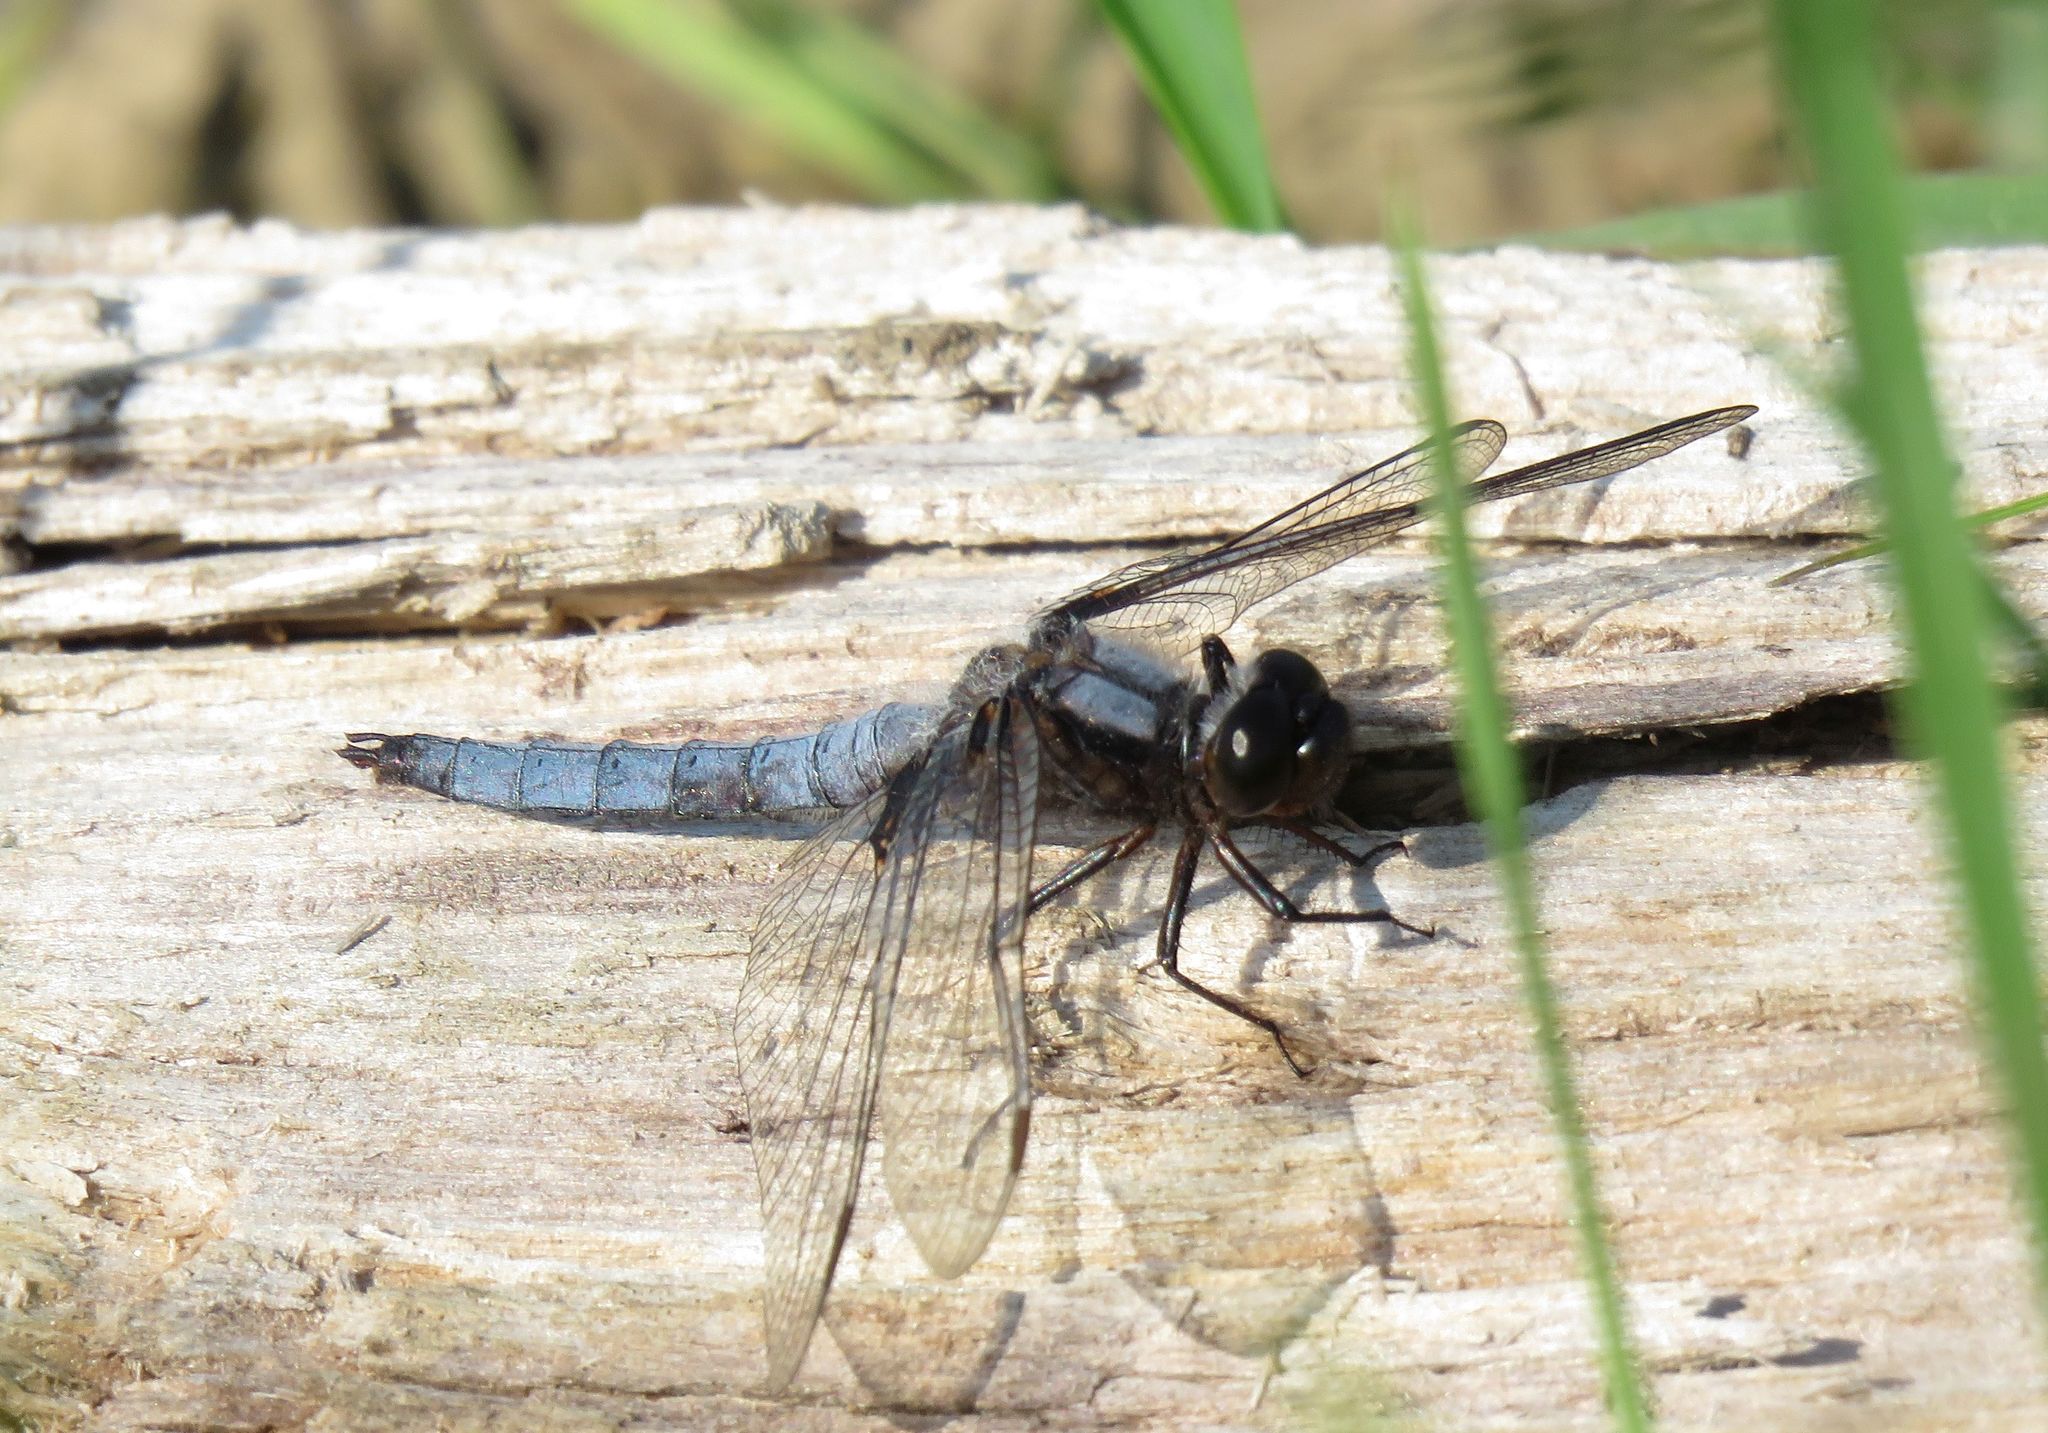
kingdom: Animalia
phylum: Arthropoda
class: Insecta
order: Odonata
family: Libellulidae
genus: Ladona
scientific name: Ladona deplanata
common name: Blue corporal
